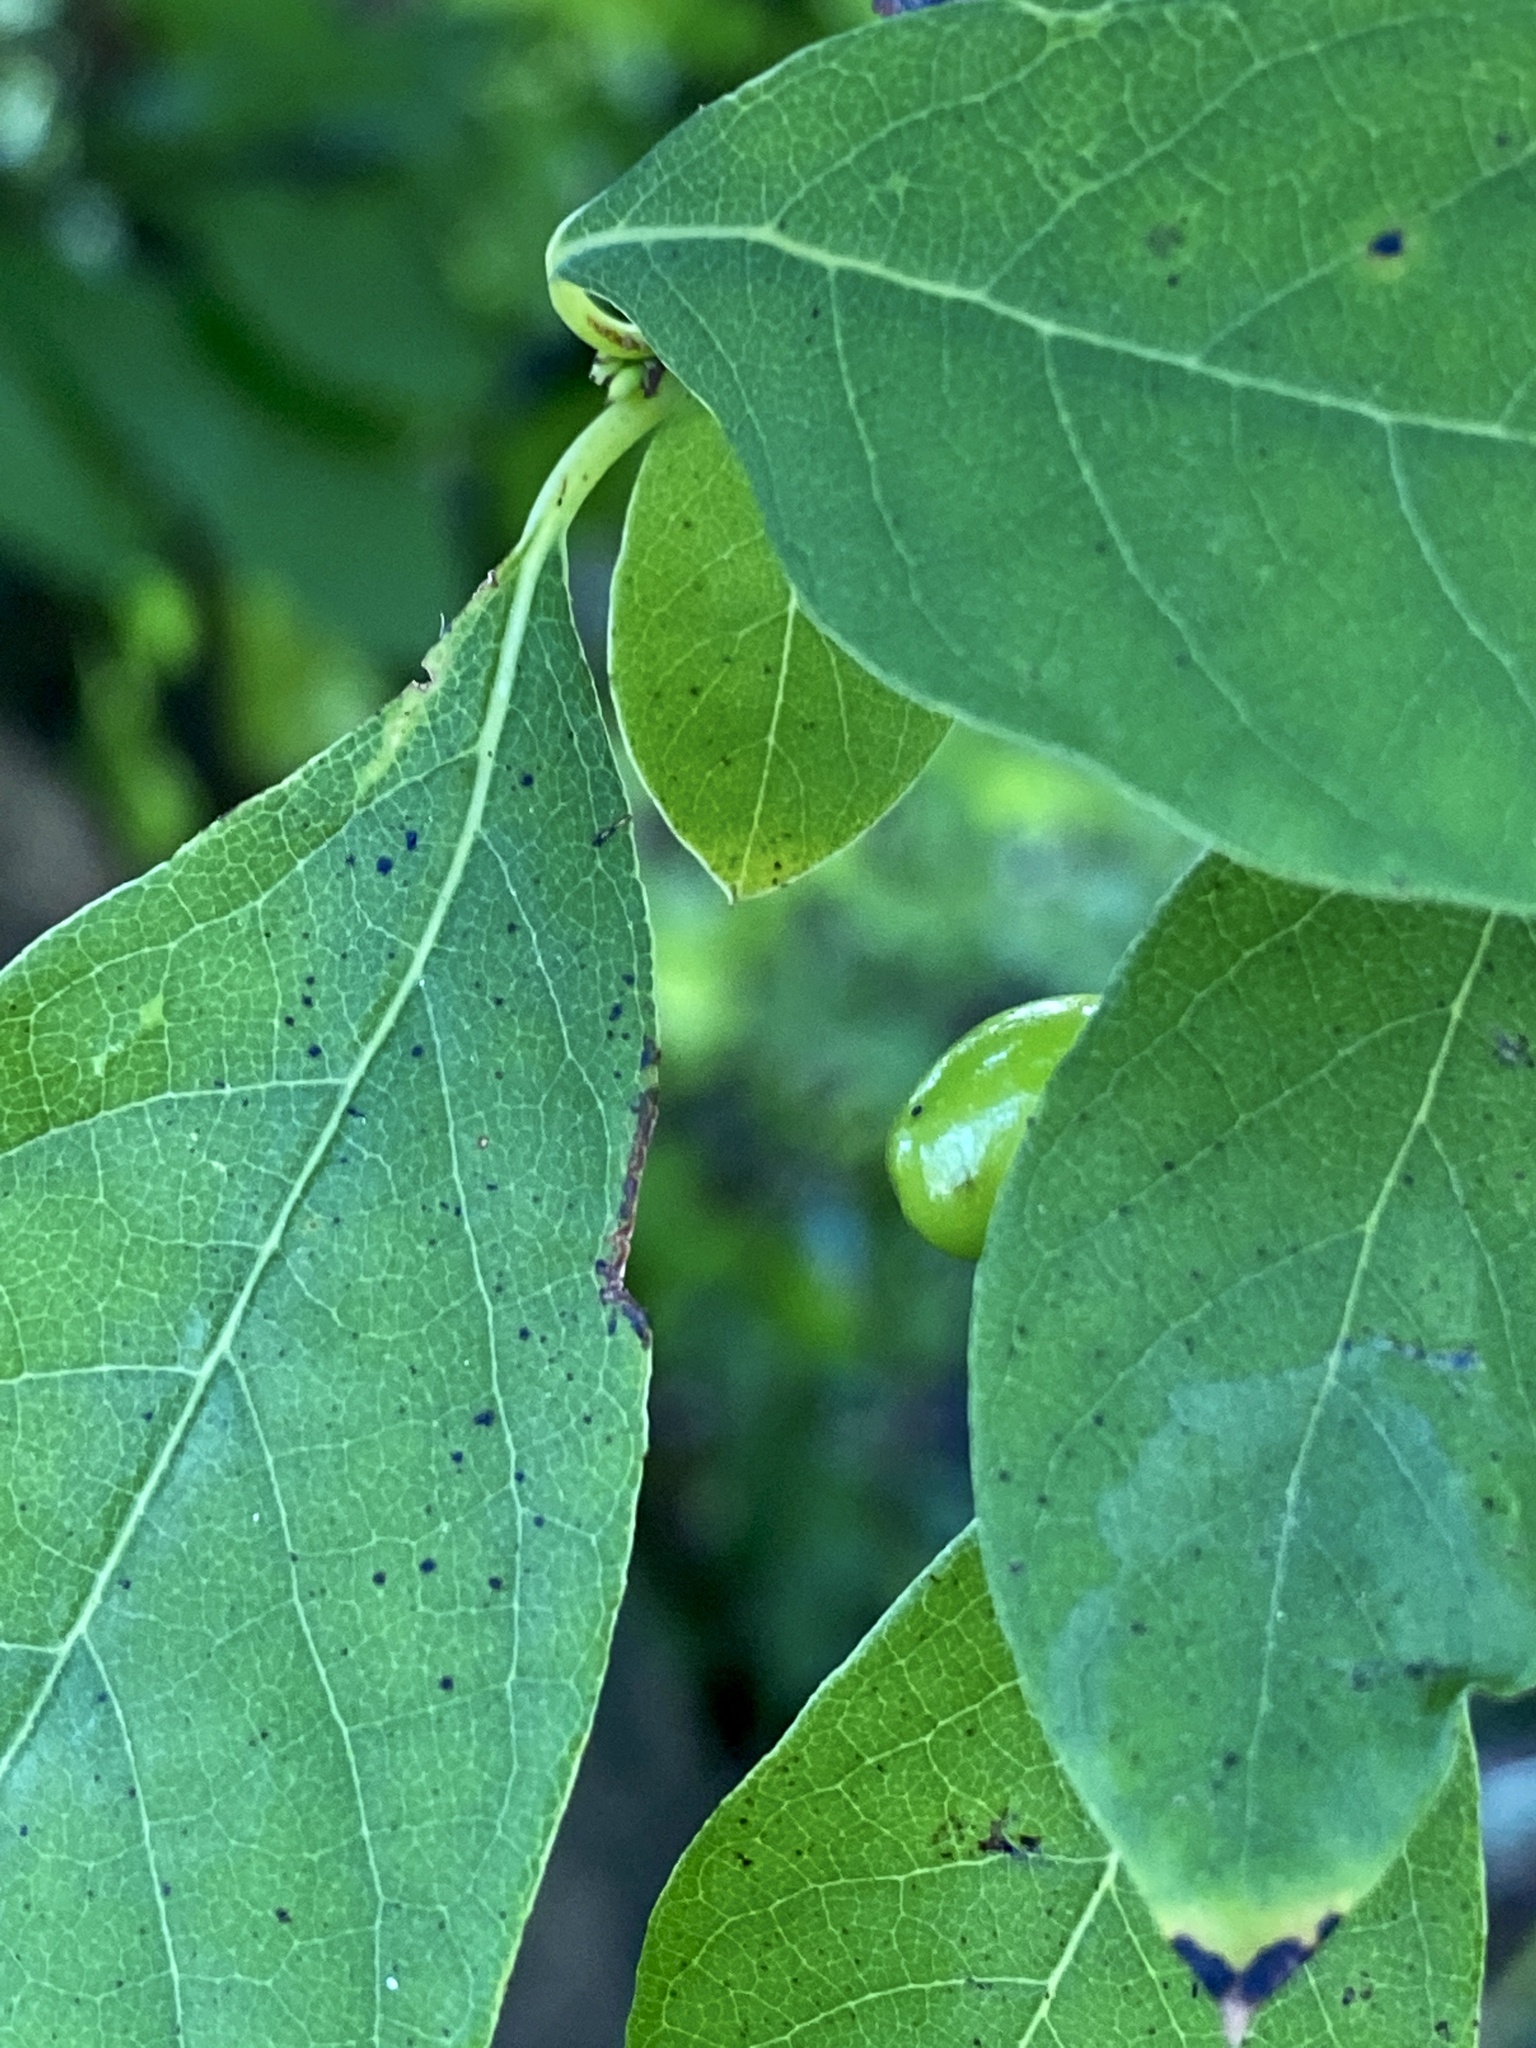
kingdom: Plantae
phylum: Tracheophyta
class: Magnoliopsida
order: Laurales
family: Lauraceae
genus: Lindera
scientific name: Lindera benzoin
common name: Spicebush
